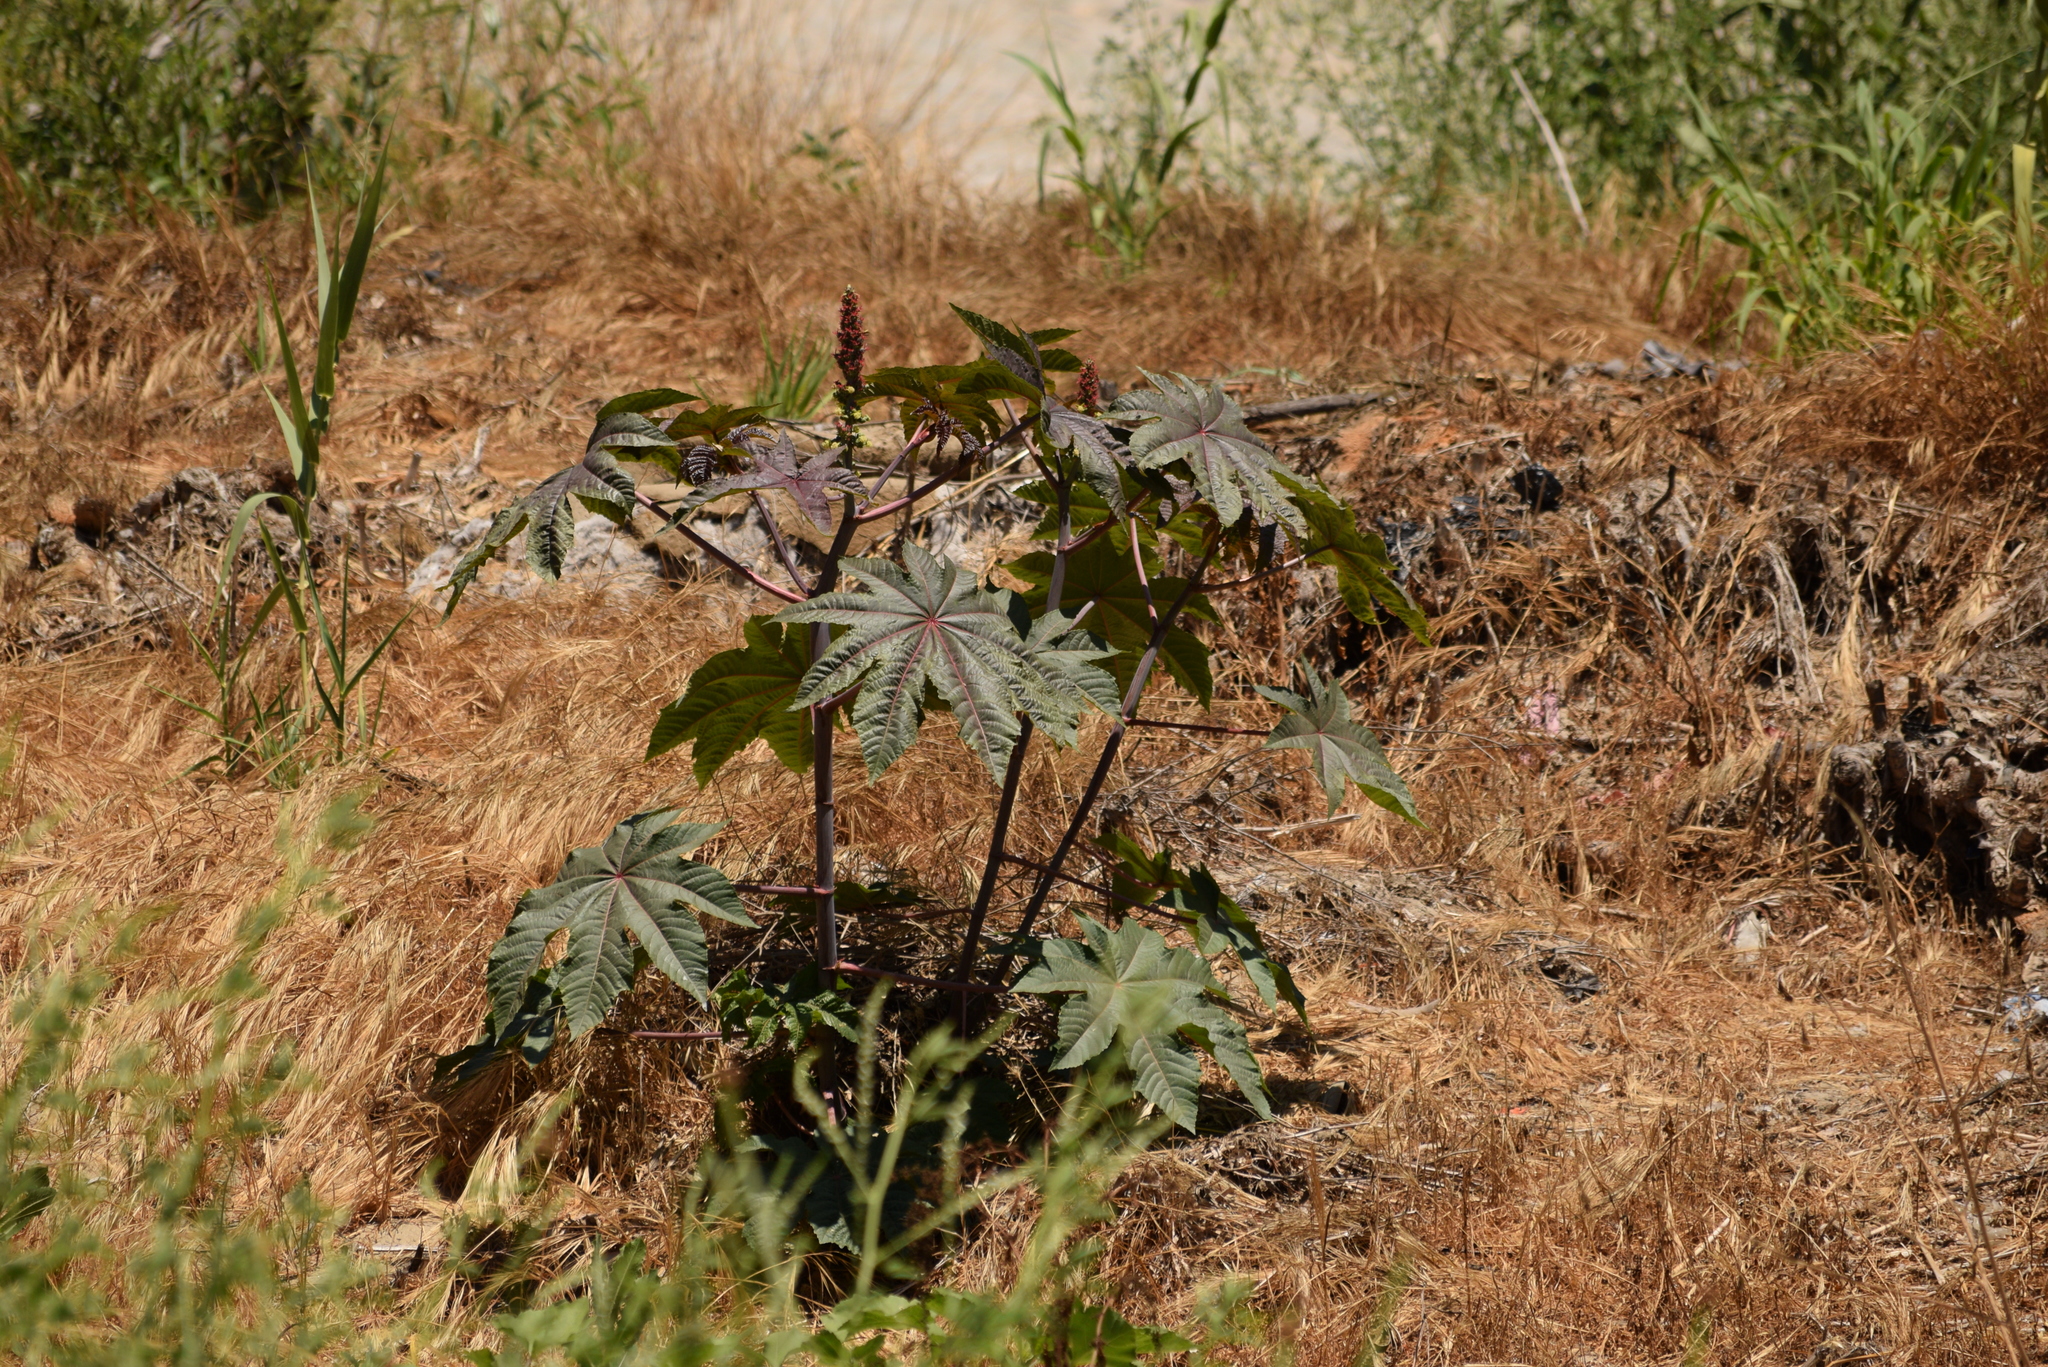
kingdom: Plantae
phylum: Tracheophyta
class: Magnoliopsida
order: Malpighiales
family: Euphorbiaceae
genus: Ricinus
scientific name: Ricinus communis
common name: Castor-oil-plant
